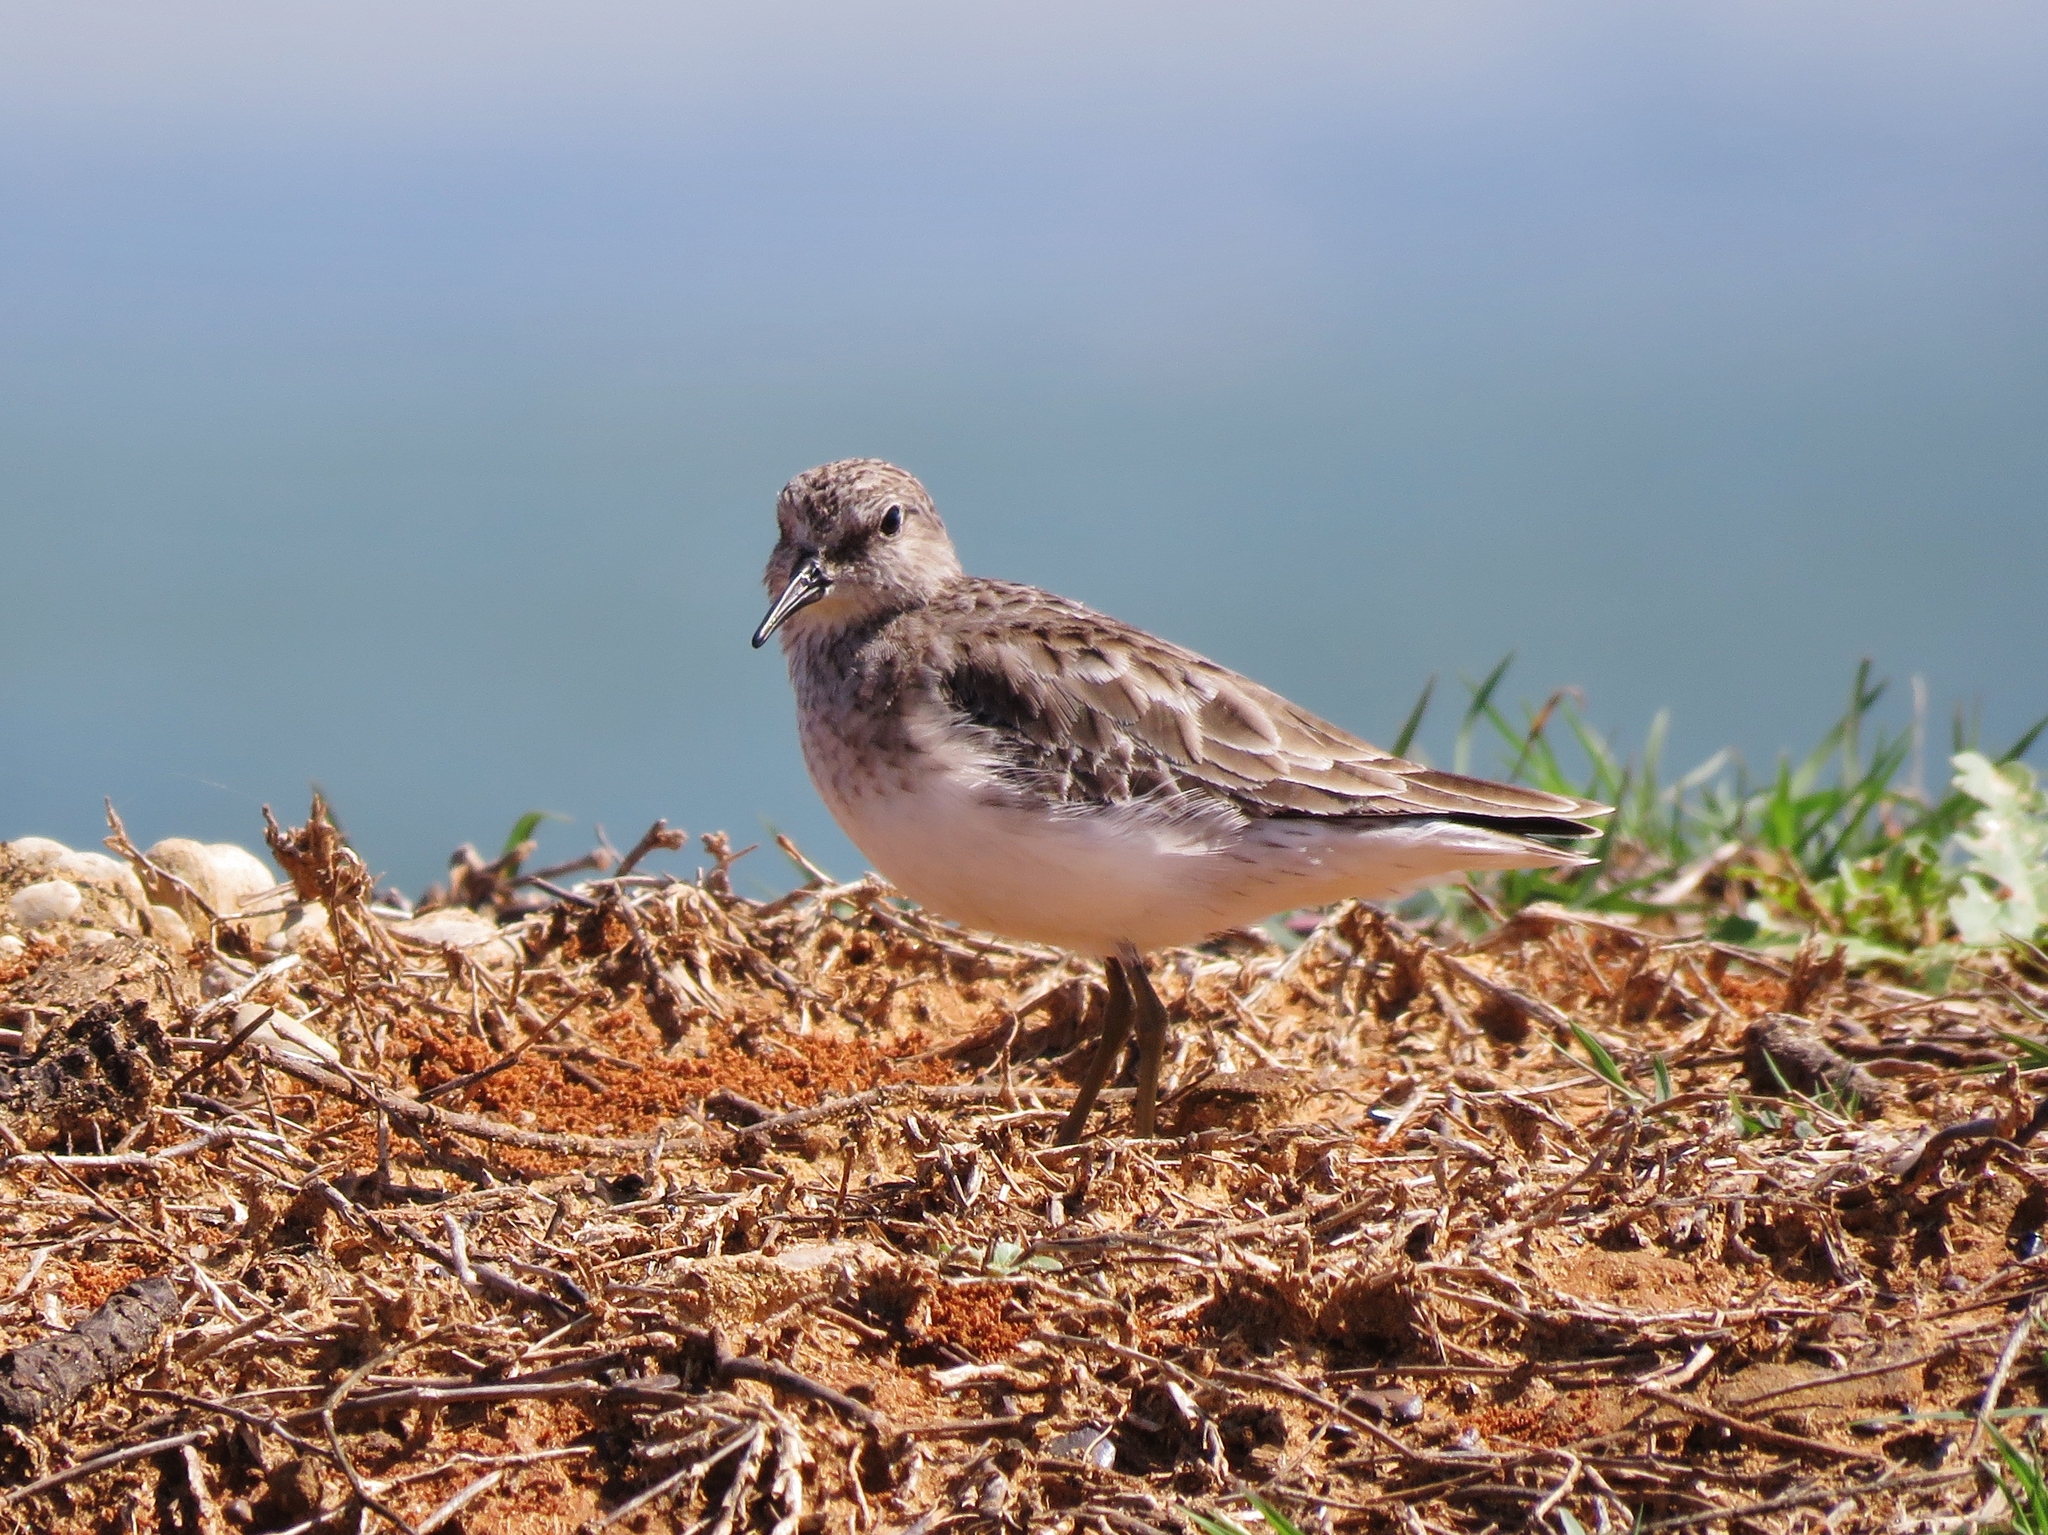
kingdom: Animalia
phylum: Chordata
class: Aves
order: Charadriiformes
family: Scolopacidae
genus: Calidris
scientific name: Calidris minutilla
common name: Least sandpiper
